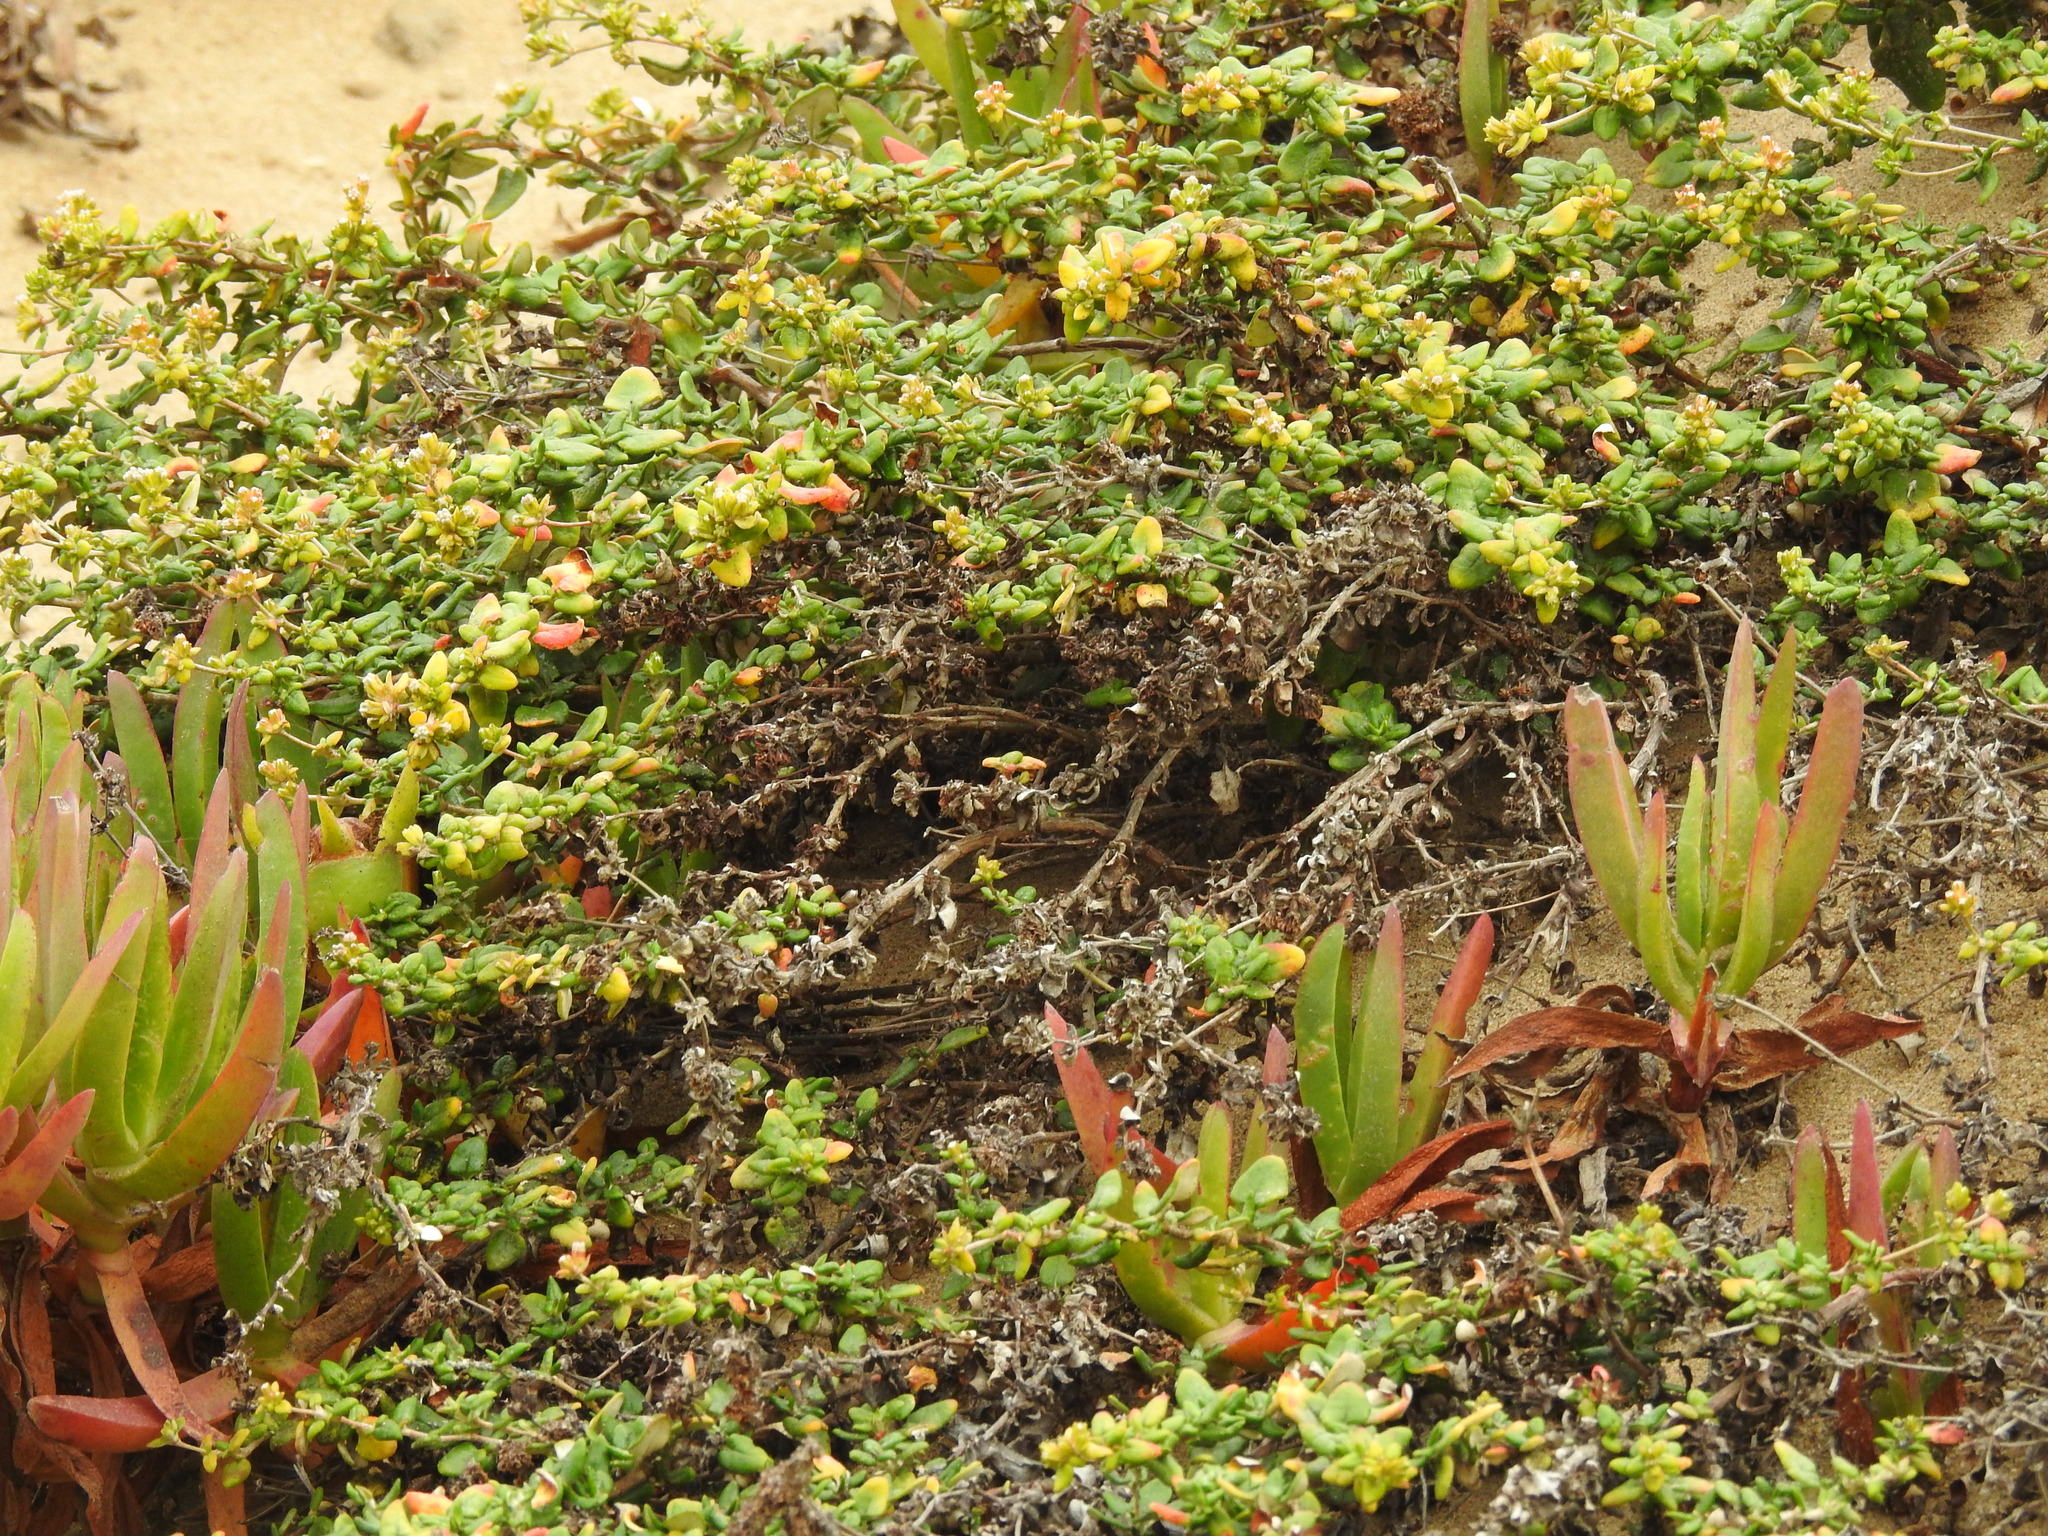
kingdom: Plantae
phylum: Tracheophyta
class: Magnoliopsida
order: Caryophyllales
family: Polygonaceae
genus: Eriogonum
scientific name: Eriogonum parvifolium
